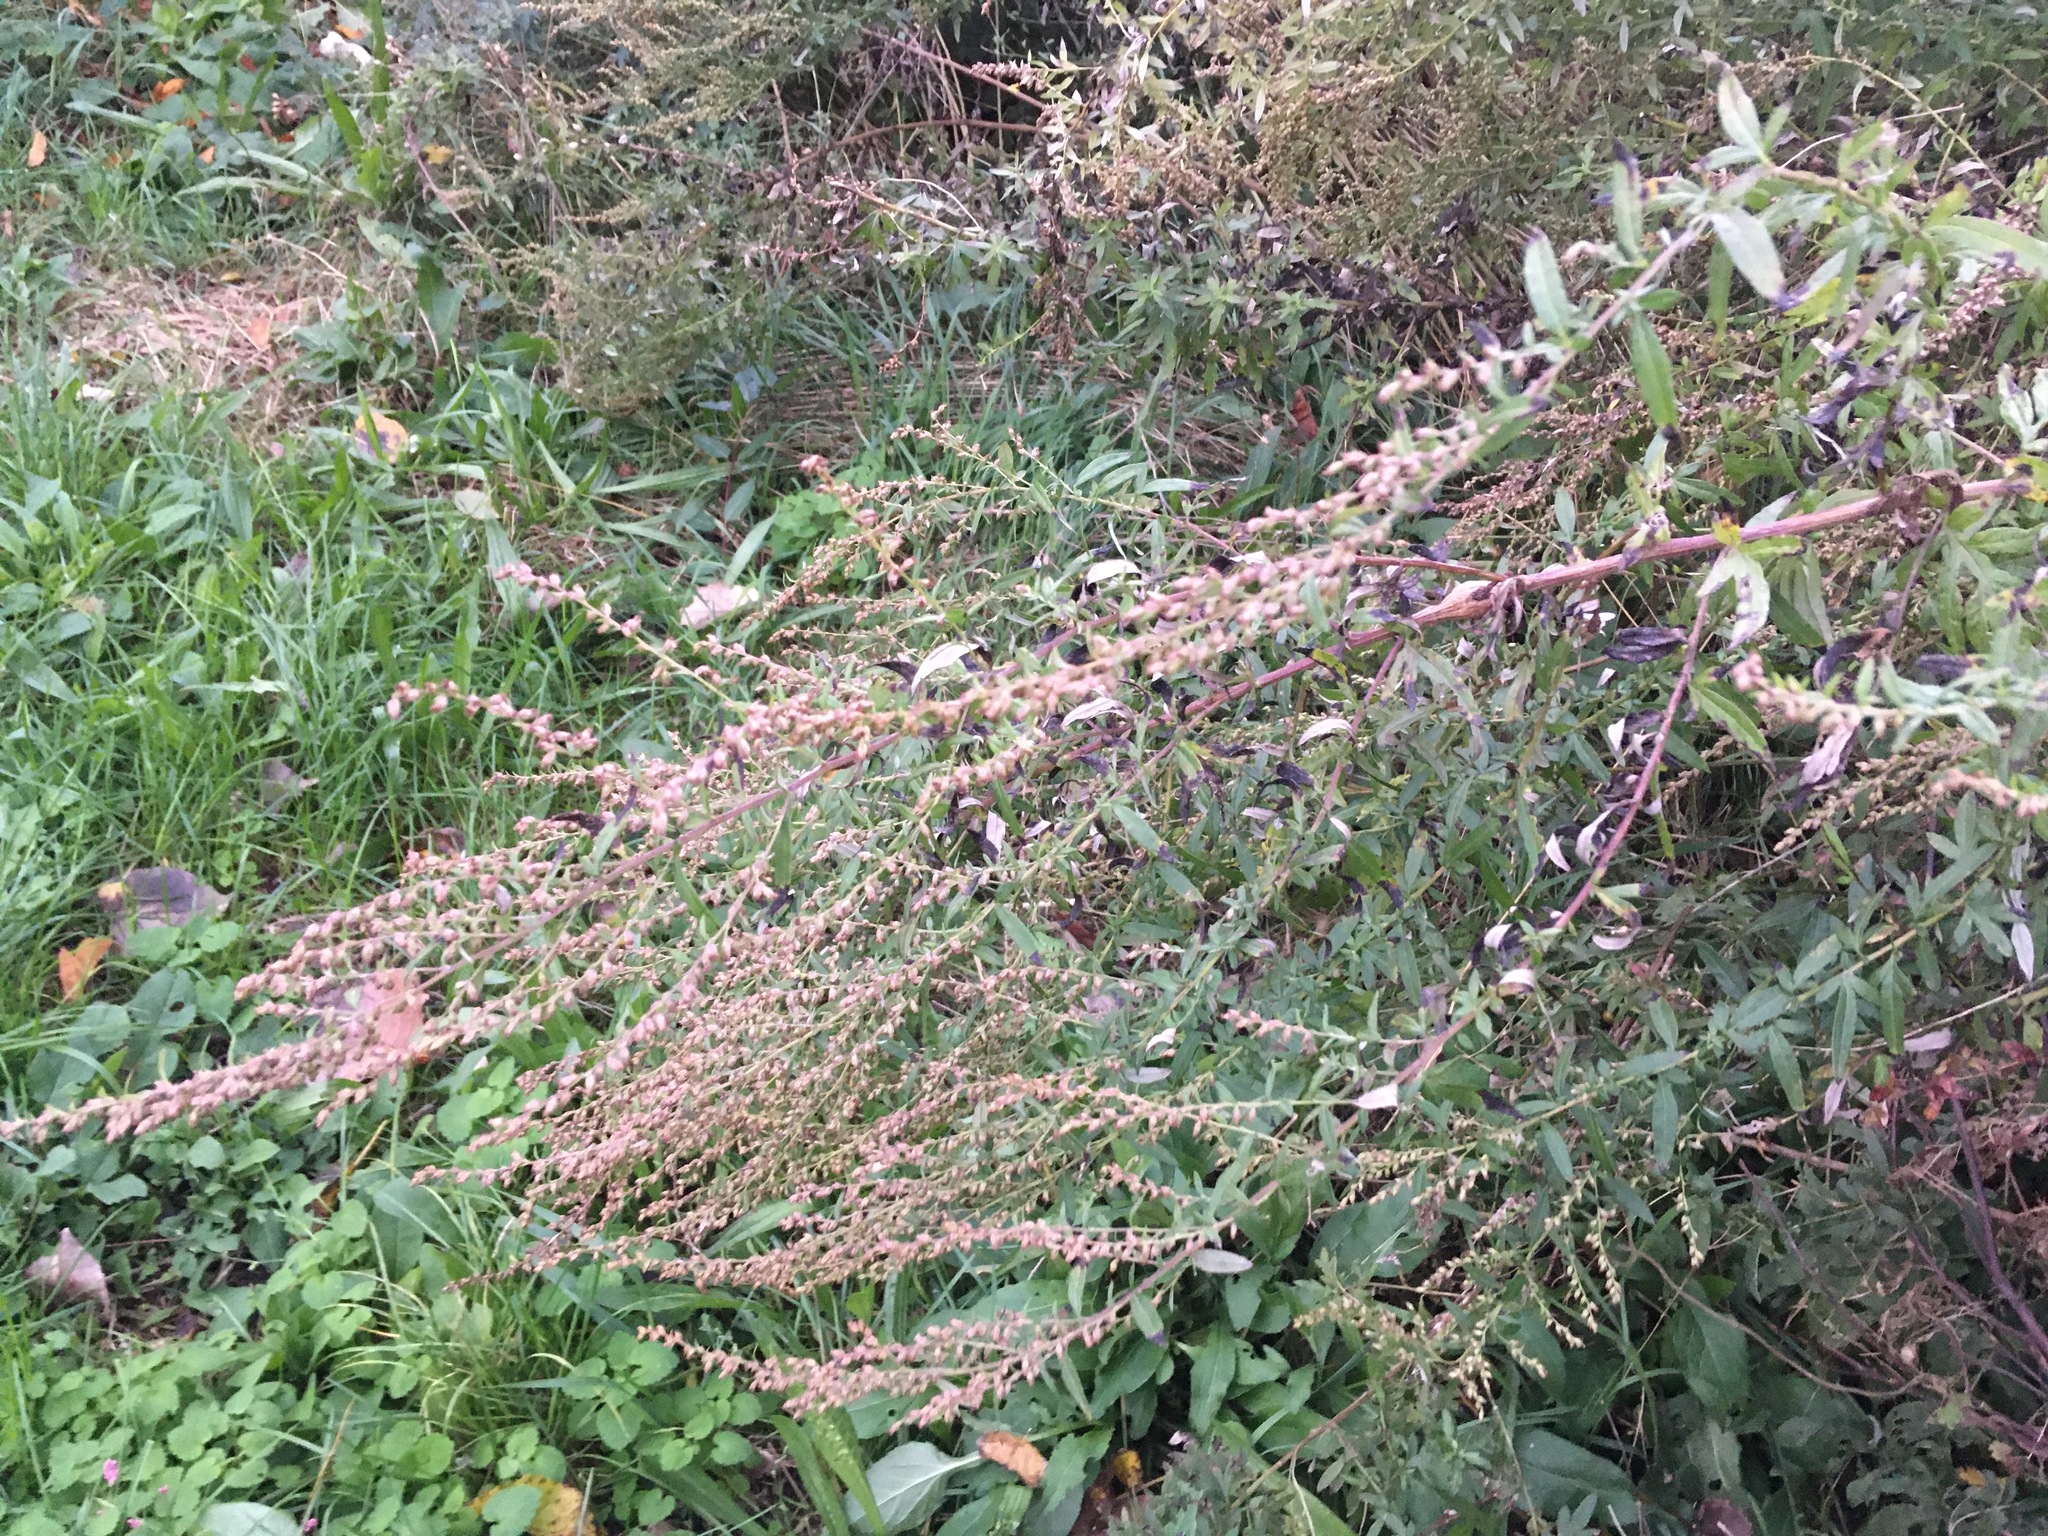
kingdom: Plantae
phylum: Tracheophyta
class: Magnoliopsida
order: Asterales
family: Asteraceae
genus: Artemisia
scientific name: Artemisia vulgaris
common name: Mugwort
